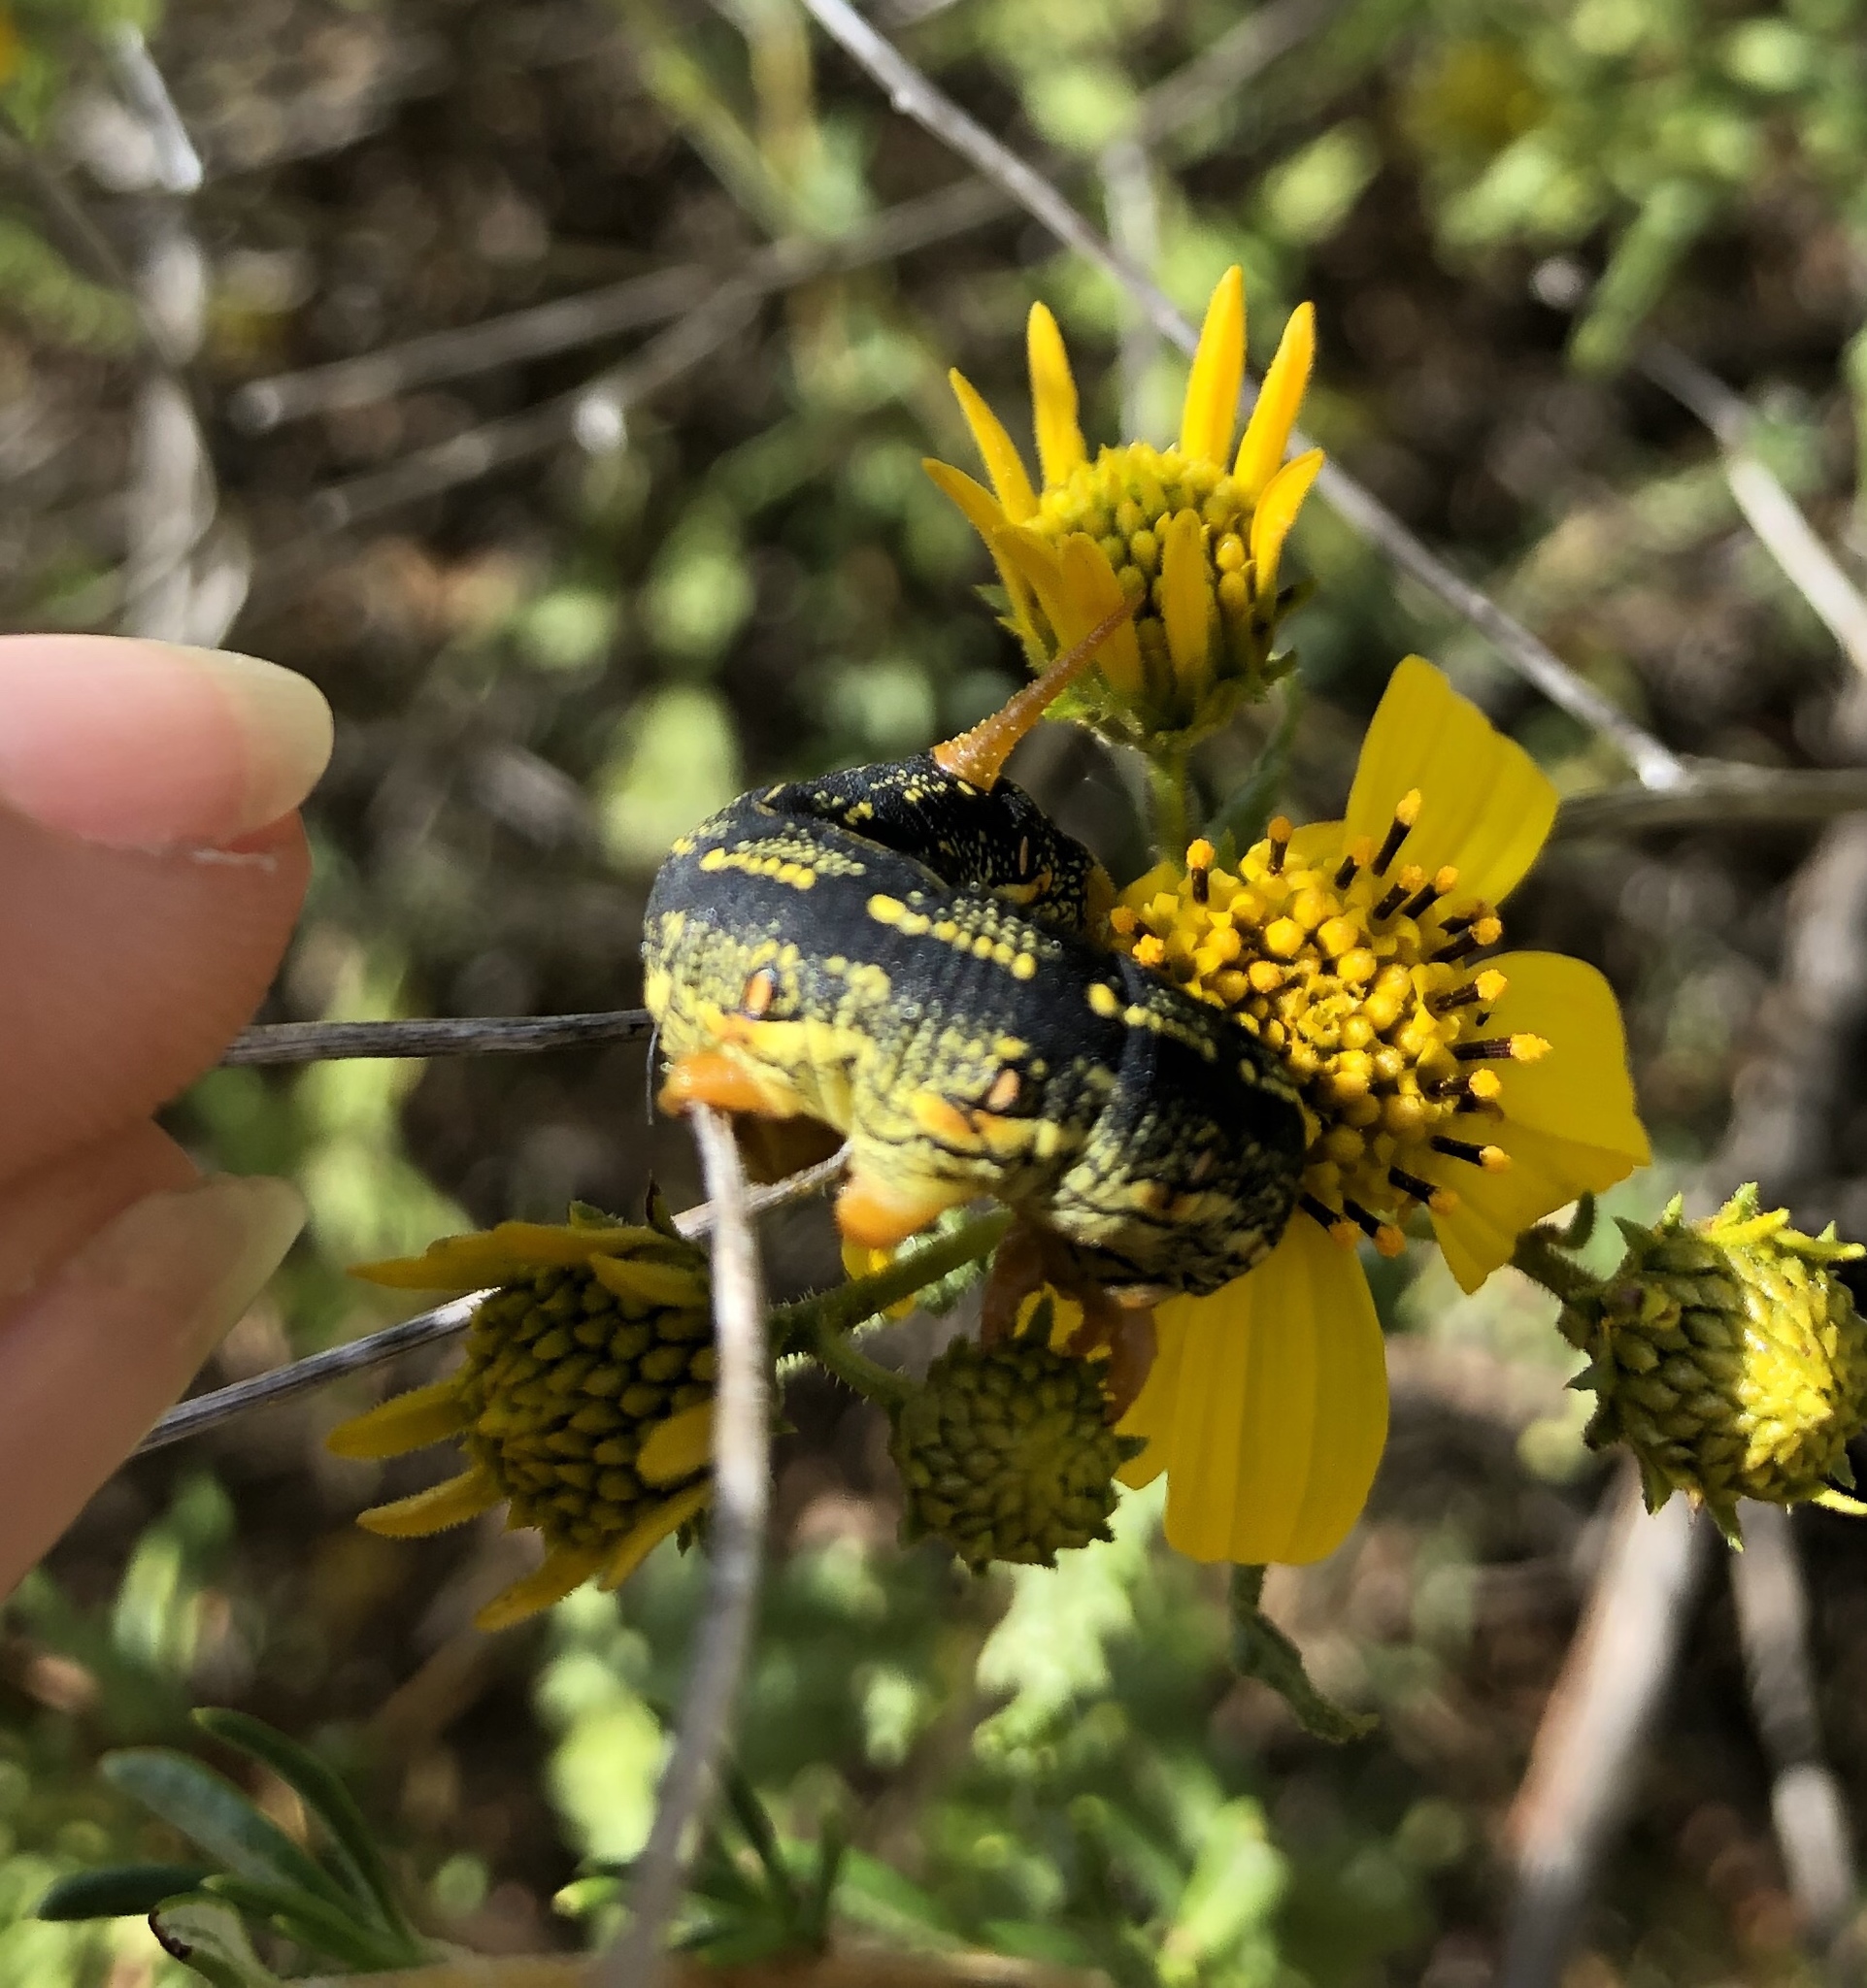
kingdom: Animalia
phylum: Arthropoda
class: Insecta
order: Lepidoptera
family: Sphingidae
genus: Hyles
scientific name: Hyles lineata
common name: White-lined sphinx
